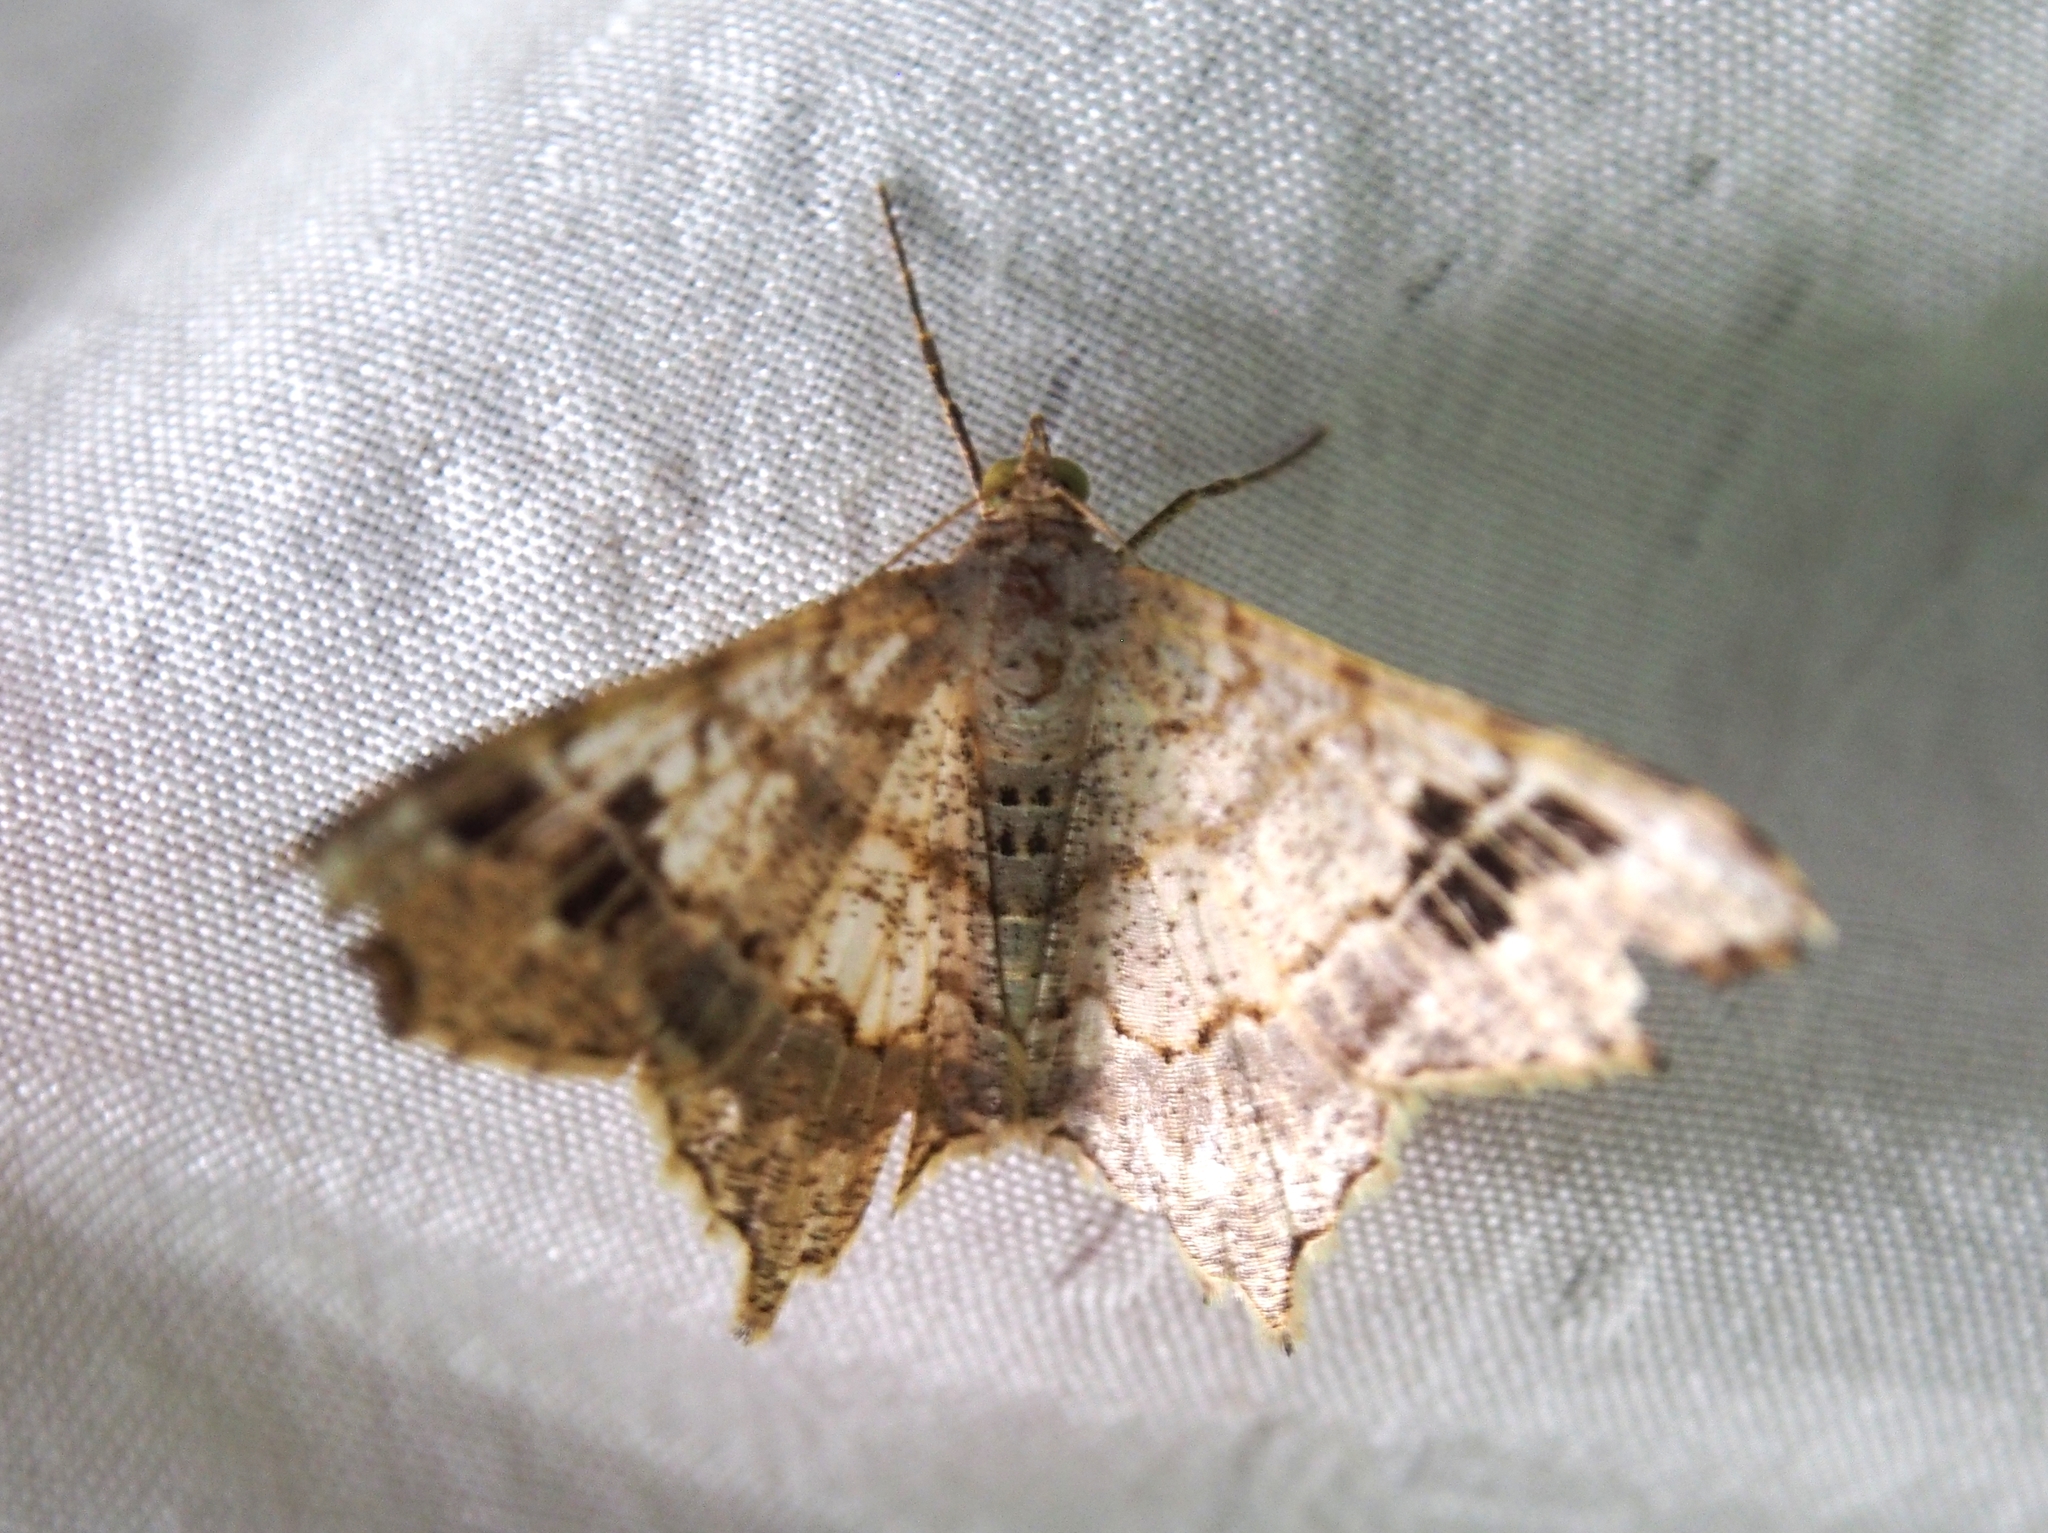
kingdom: Animalia
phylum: Arthropoda
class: Insecta
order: Lepidoptera
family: Geometridae
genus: Macaria
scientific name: Macaria regulata
